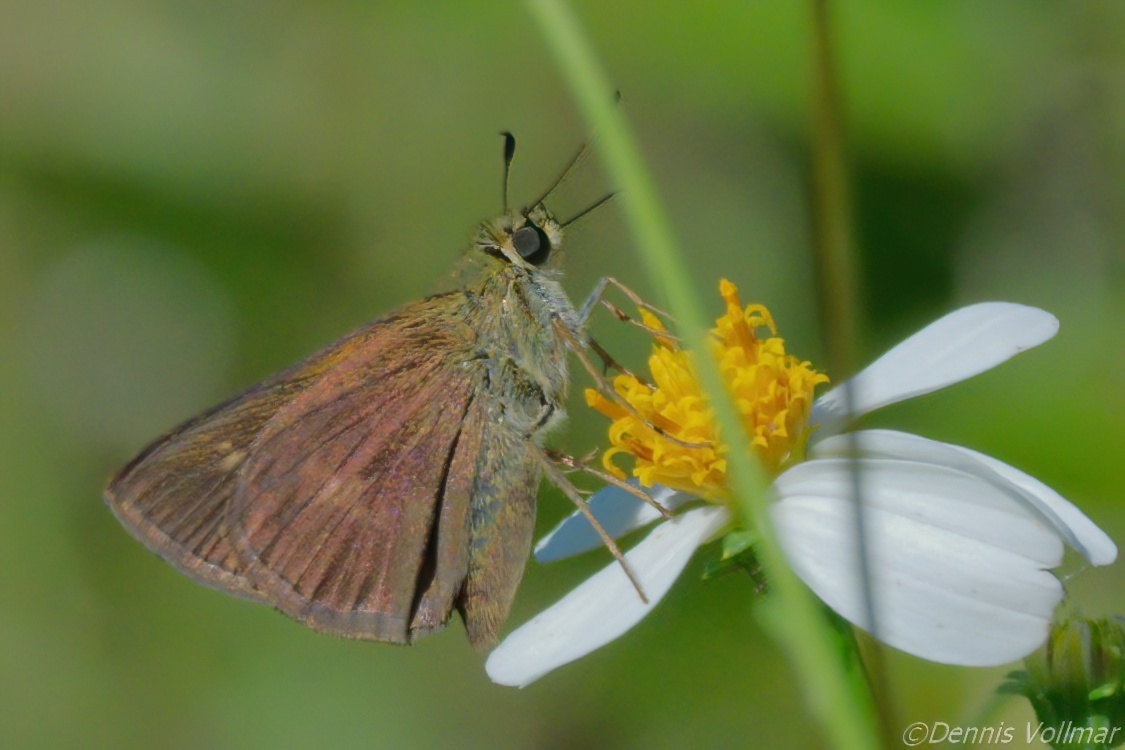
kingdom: Animalia
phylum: Arthropoda
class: Insecta
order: Lepidoptera
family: Hesperiidae
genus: Polites
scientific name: Polites egeremet
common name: Northern broken-dash
